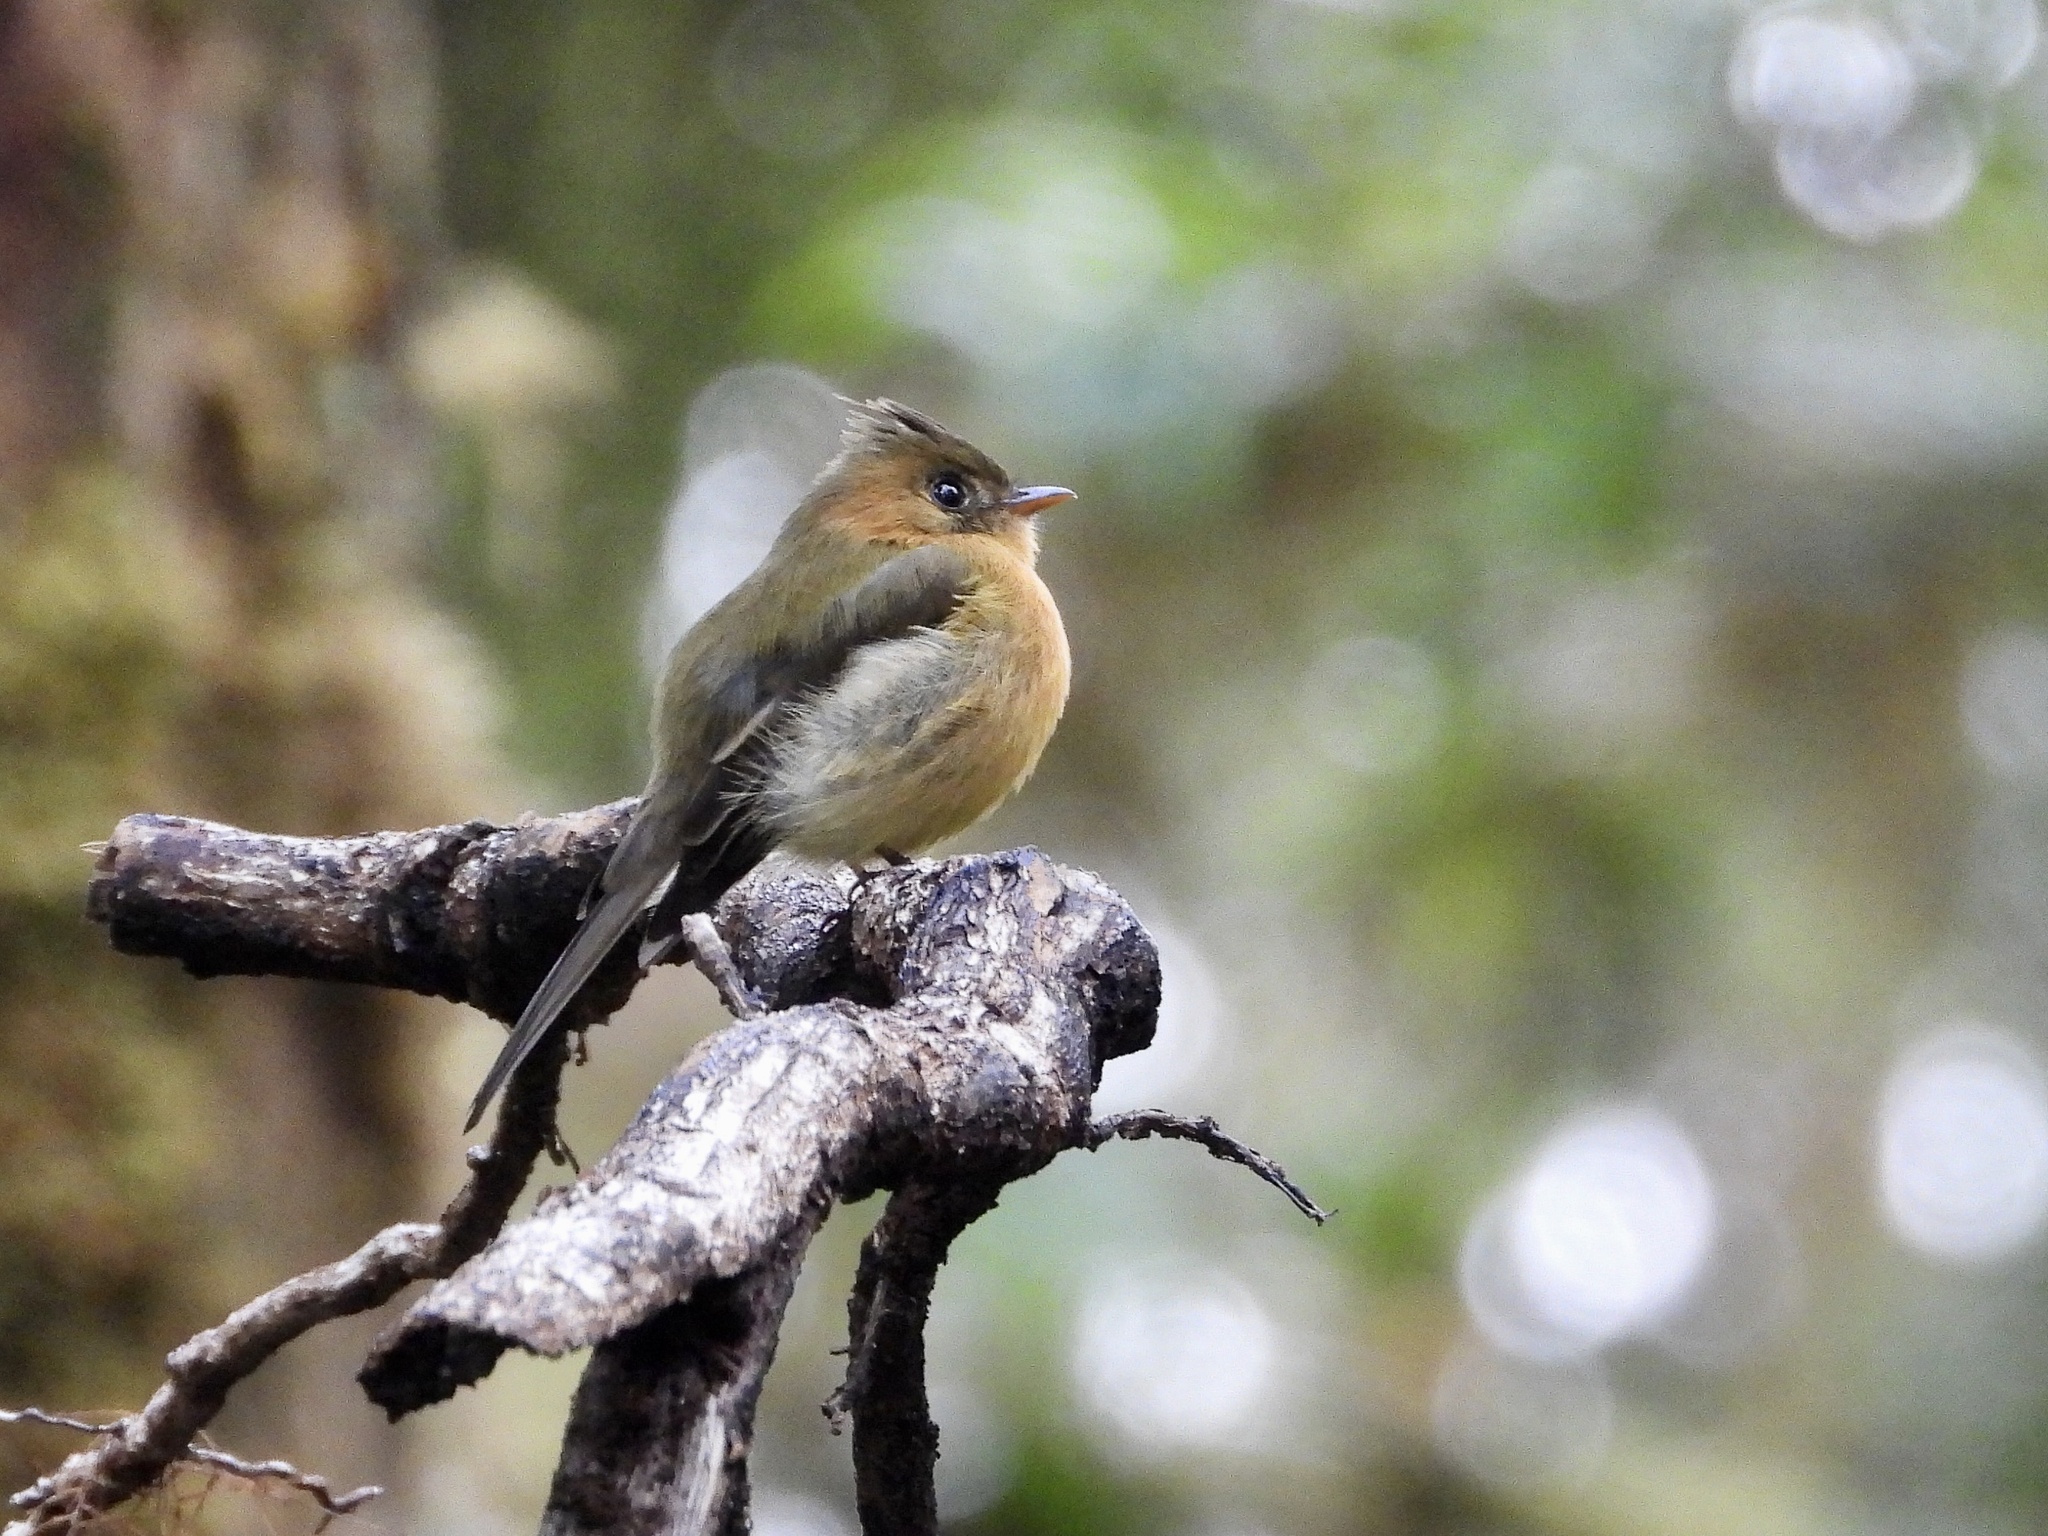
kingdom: Animalia
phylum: Chordata
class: Aves
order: Passeriformes
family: Tyrannidae
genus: Mitrephanes
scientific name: Mitrephanes phaeocercus
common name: Northern tufted flycatcher
